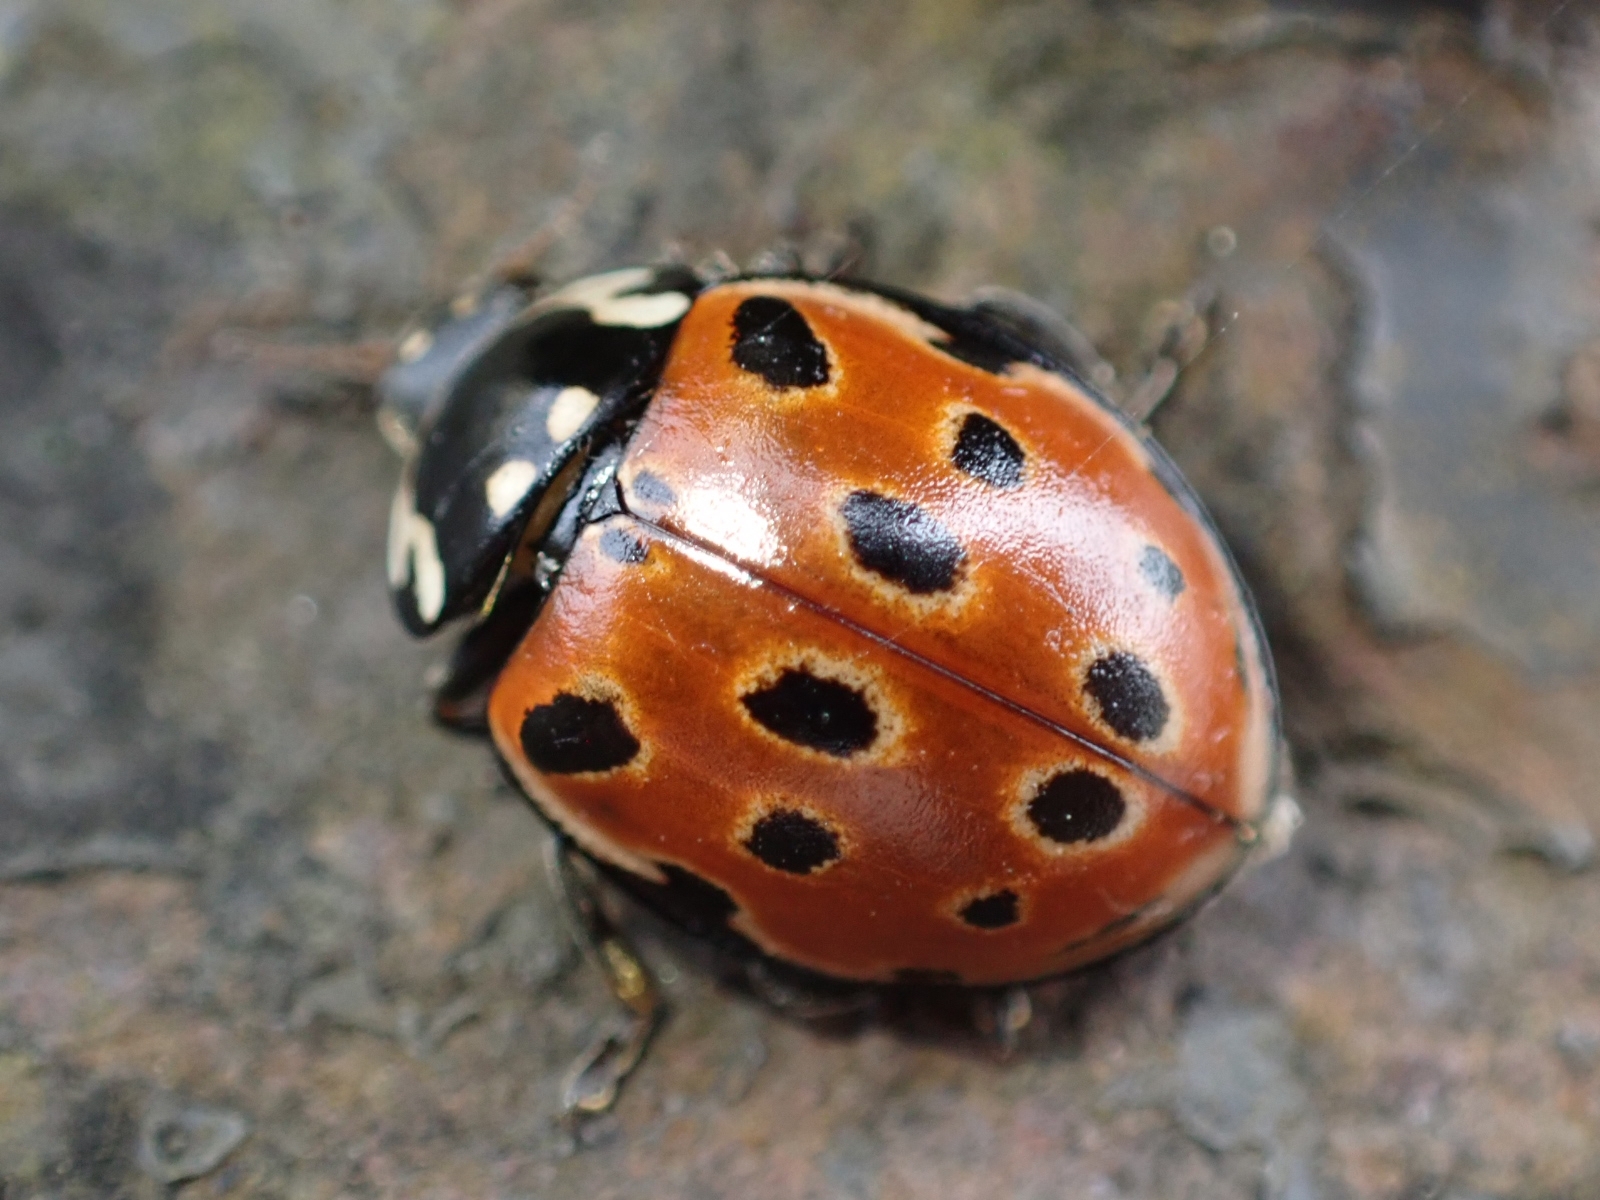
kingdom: Animalia
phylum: Arthropoda
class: Insecta
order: Coleoptera
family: Coccinellidae
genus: Anatis
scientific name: Anatis ocellata
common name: Eyed ladybird
